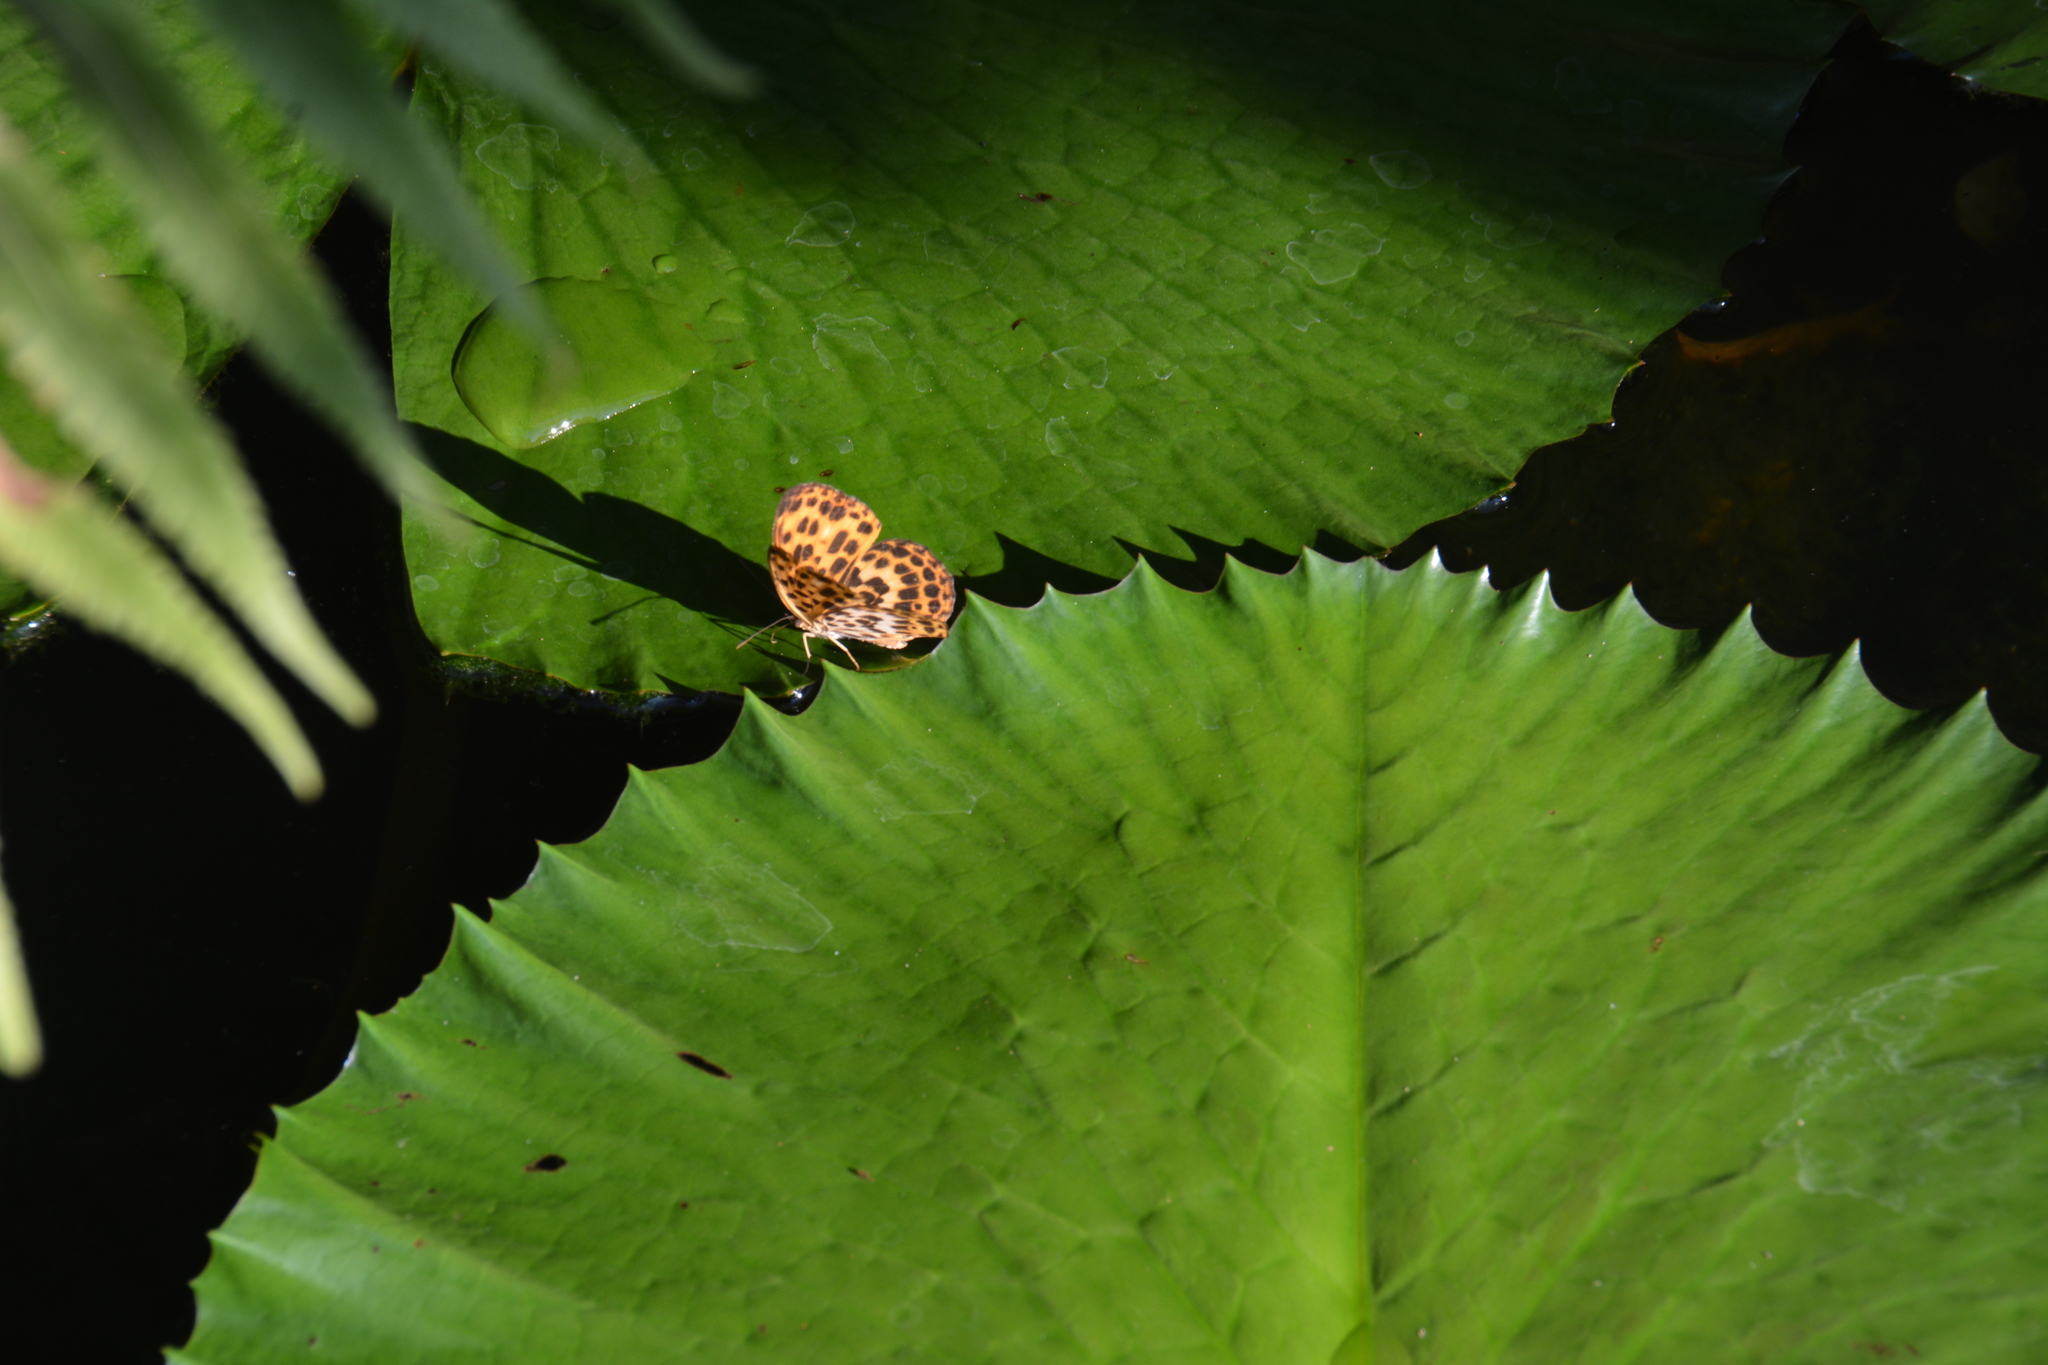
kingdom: Animalia
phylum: Arthropoda
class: Insecta
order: Lepidoptera
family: Nymphalidae
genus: Timelaea
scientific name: Timelaea albescens
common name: Beautiful leopard
